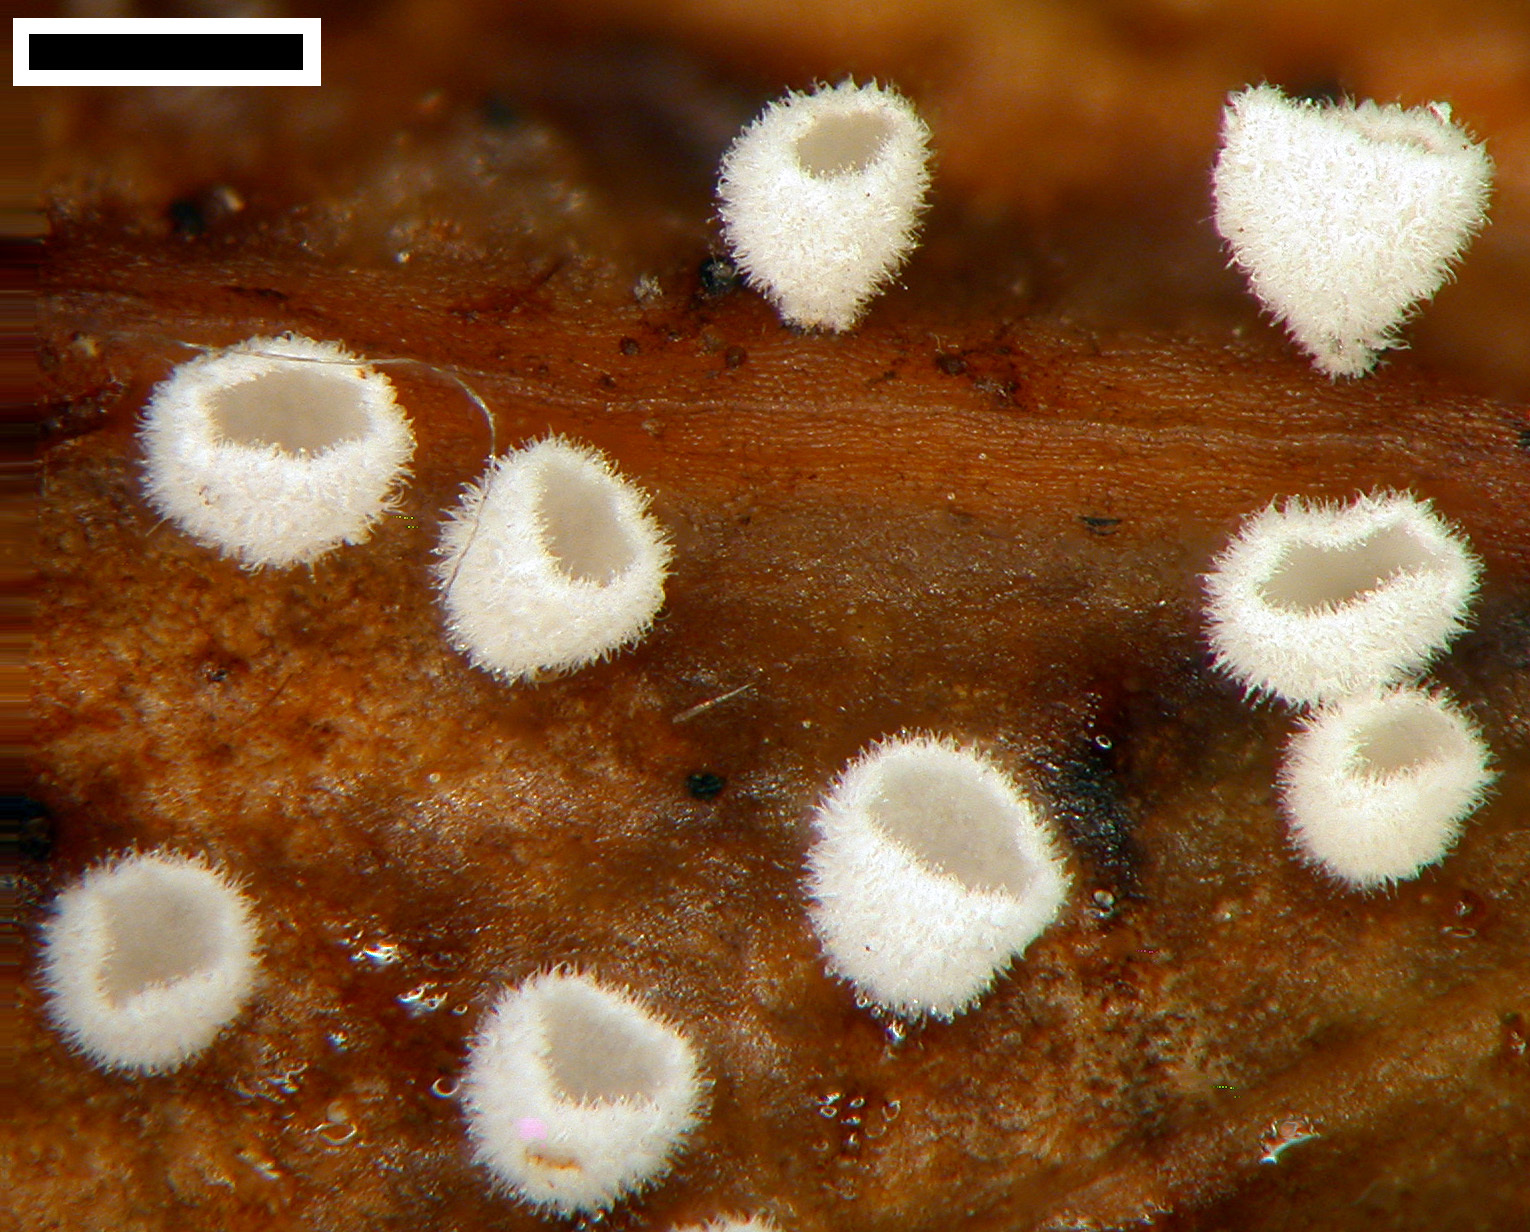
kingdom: Fungi
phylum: Basidiomycota
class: Agaricomycetes
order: Agaricales
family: Niaceae
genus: Flagelloscypha
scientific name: Flagelloscypha pseudopanax
